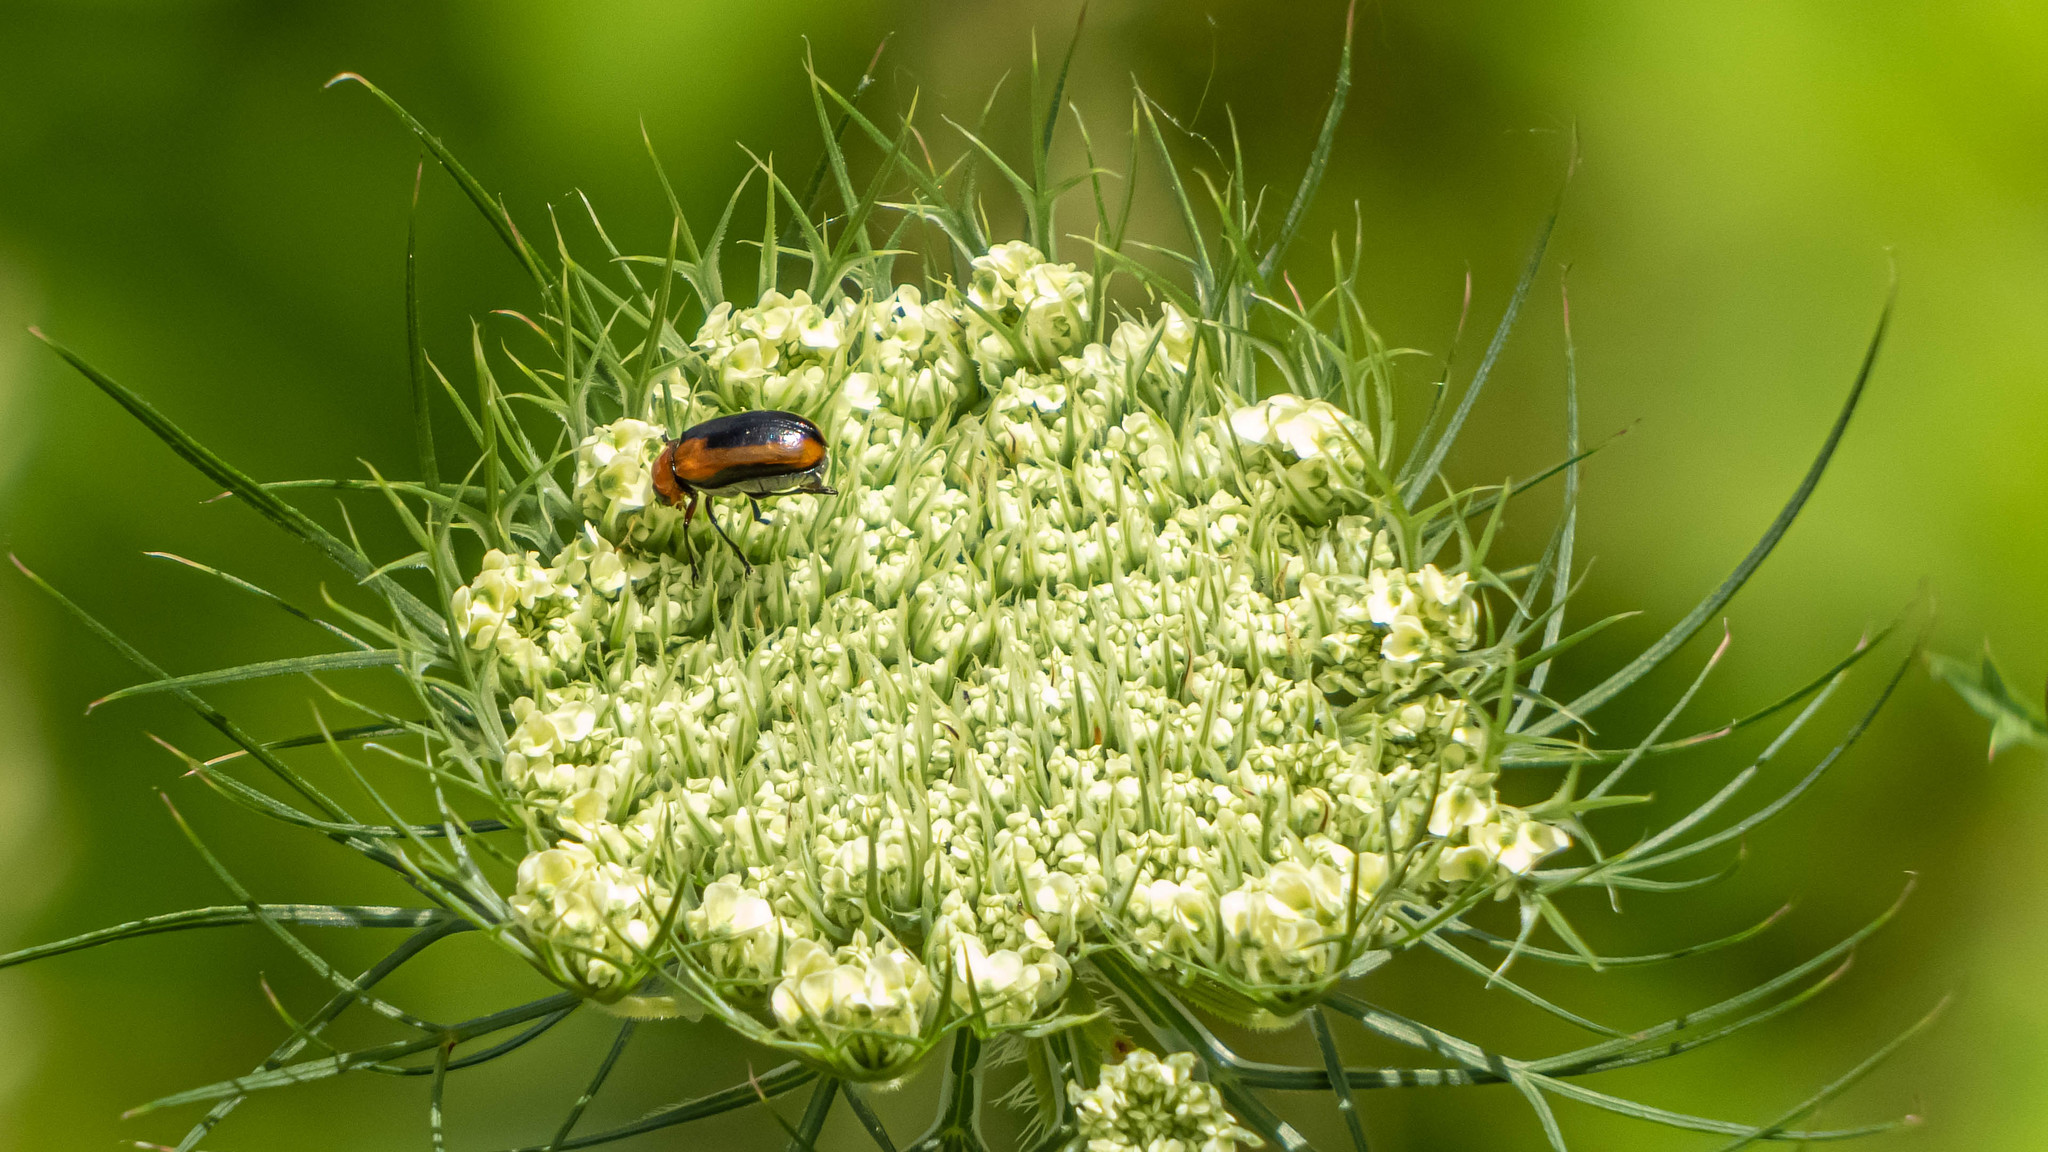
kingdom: Plantae
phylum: Tracheophyta
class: Magnoliopsida
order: Apiales
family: Apiaceae
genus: Daucus
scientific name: Daucus carota
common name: Wild carrot
